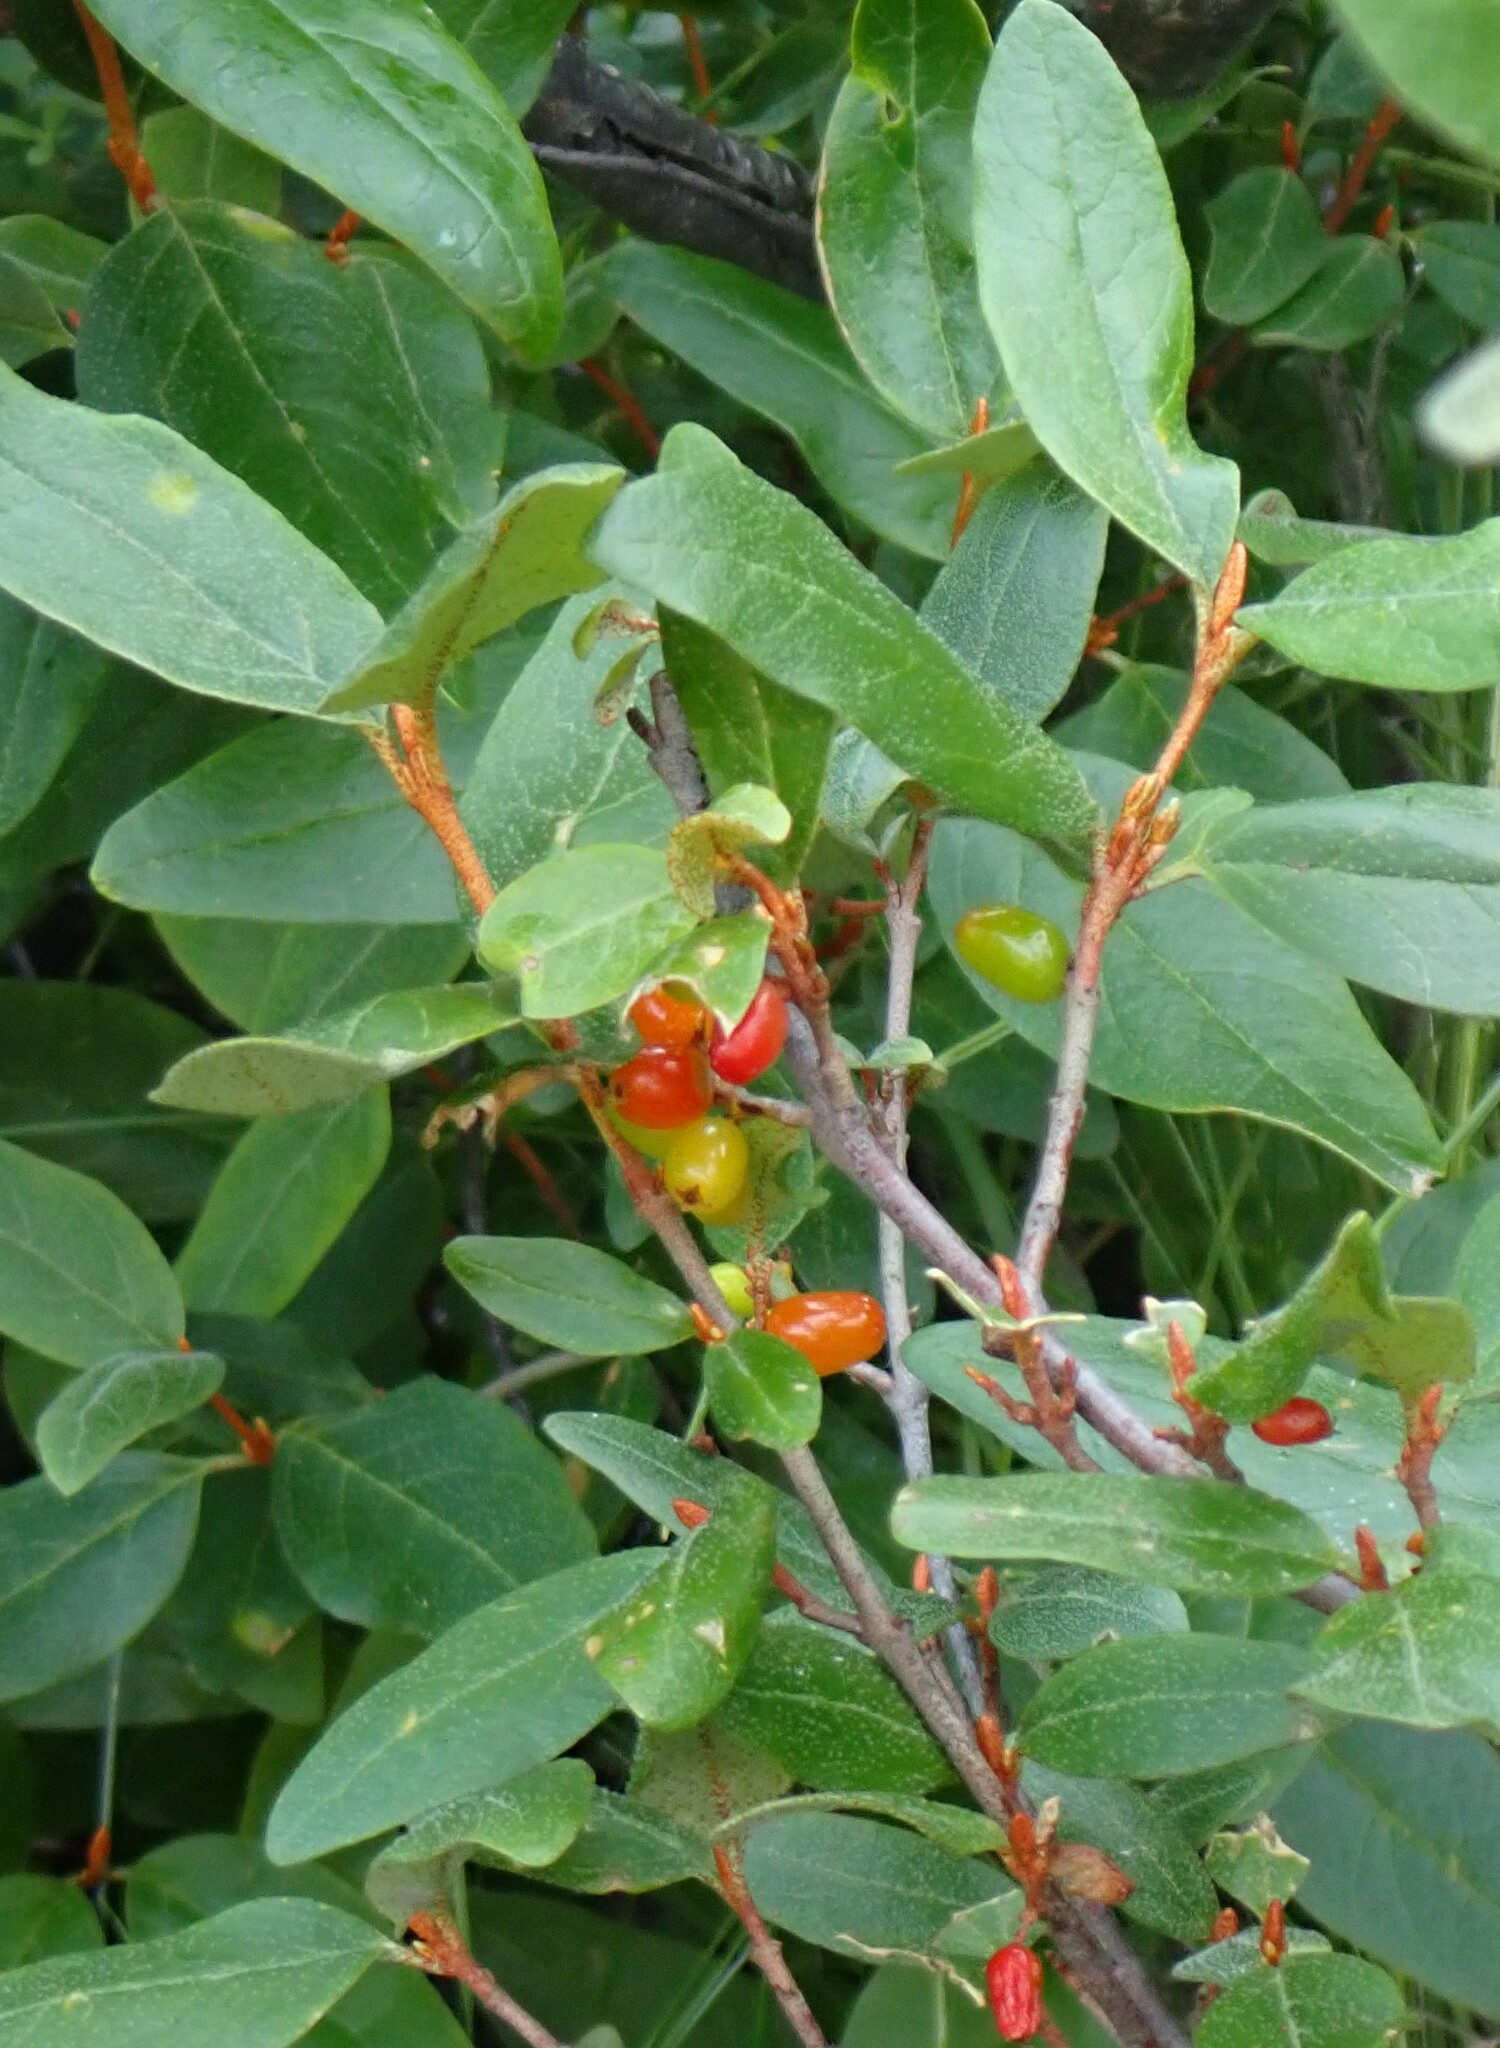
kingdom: Plantae
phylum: Tracheophyta
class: Magnoliopsida
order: Rosales
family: Elaeagnaceae
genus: Shepherdia
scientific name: Shepherdia canadensis
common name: Soapberry
